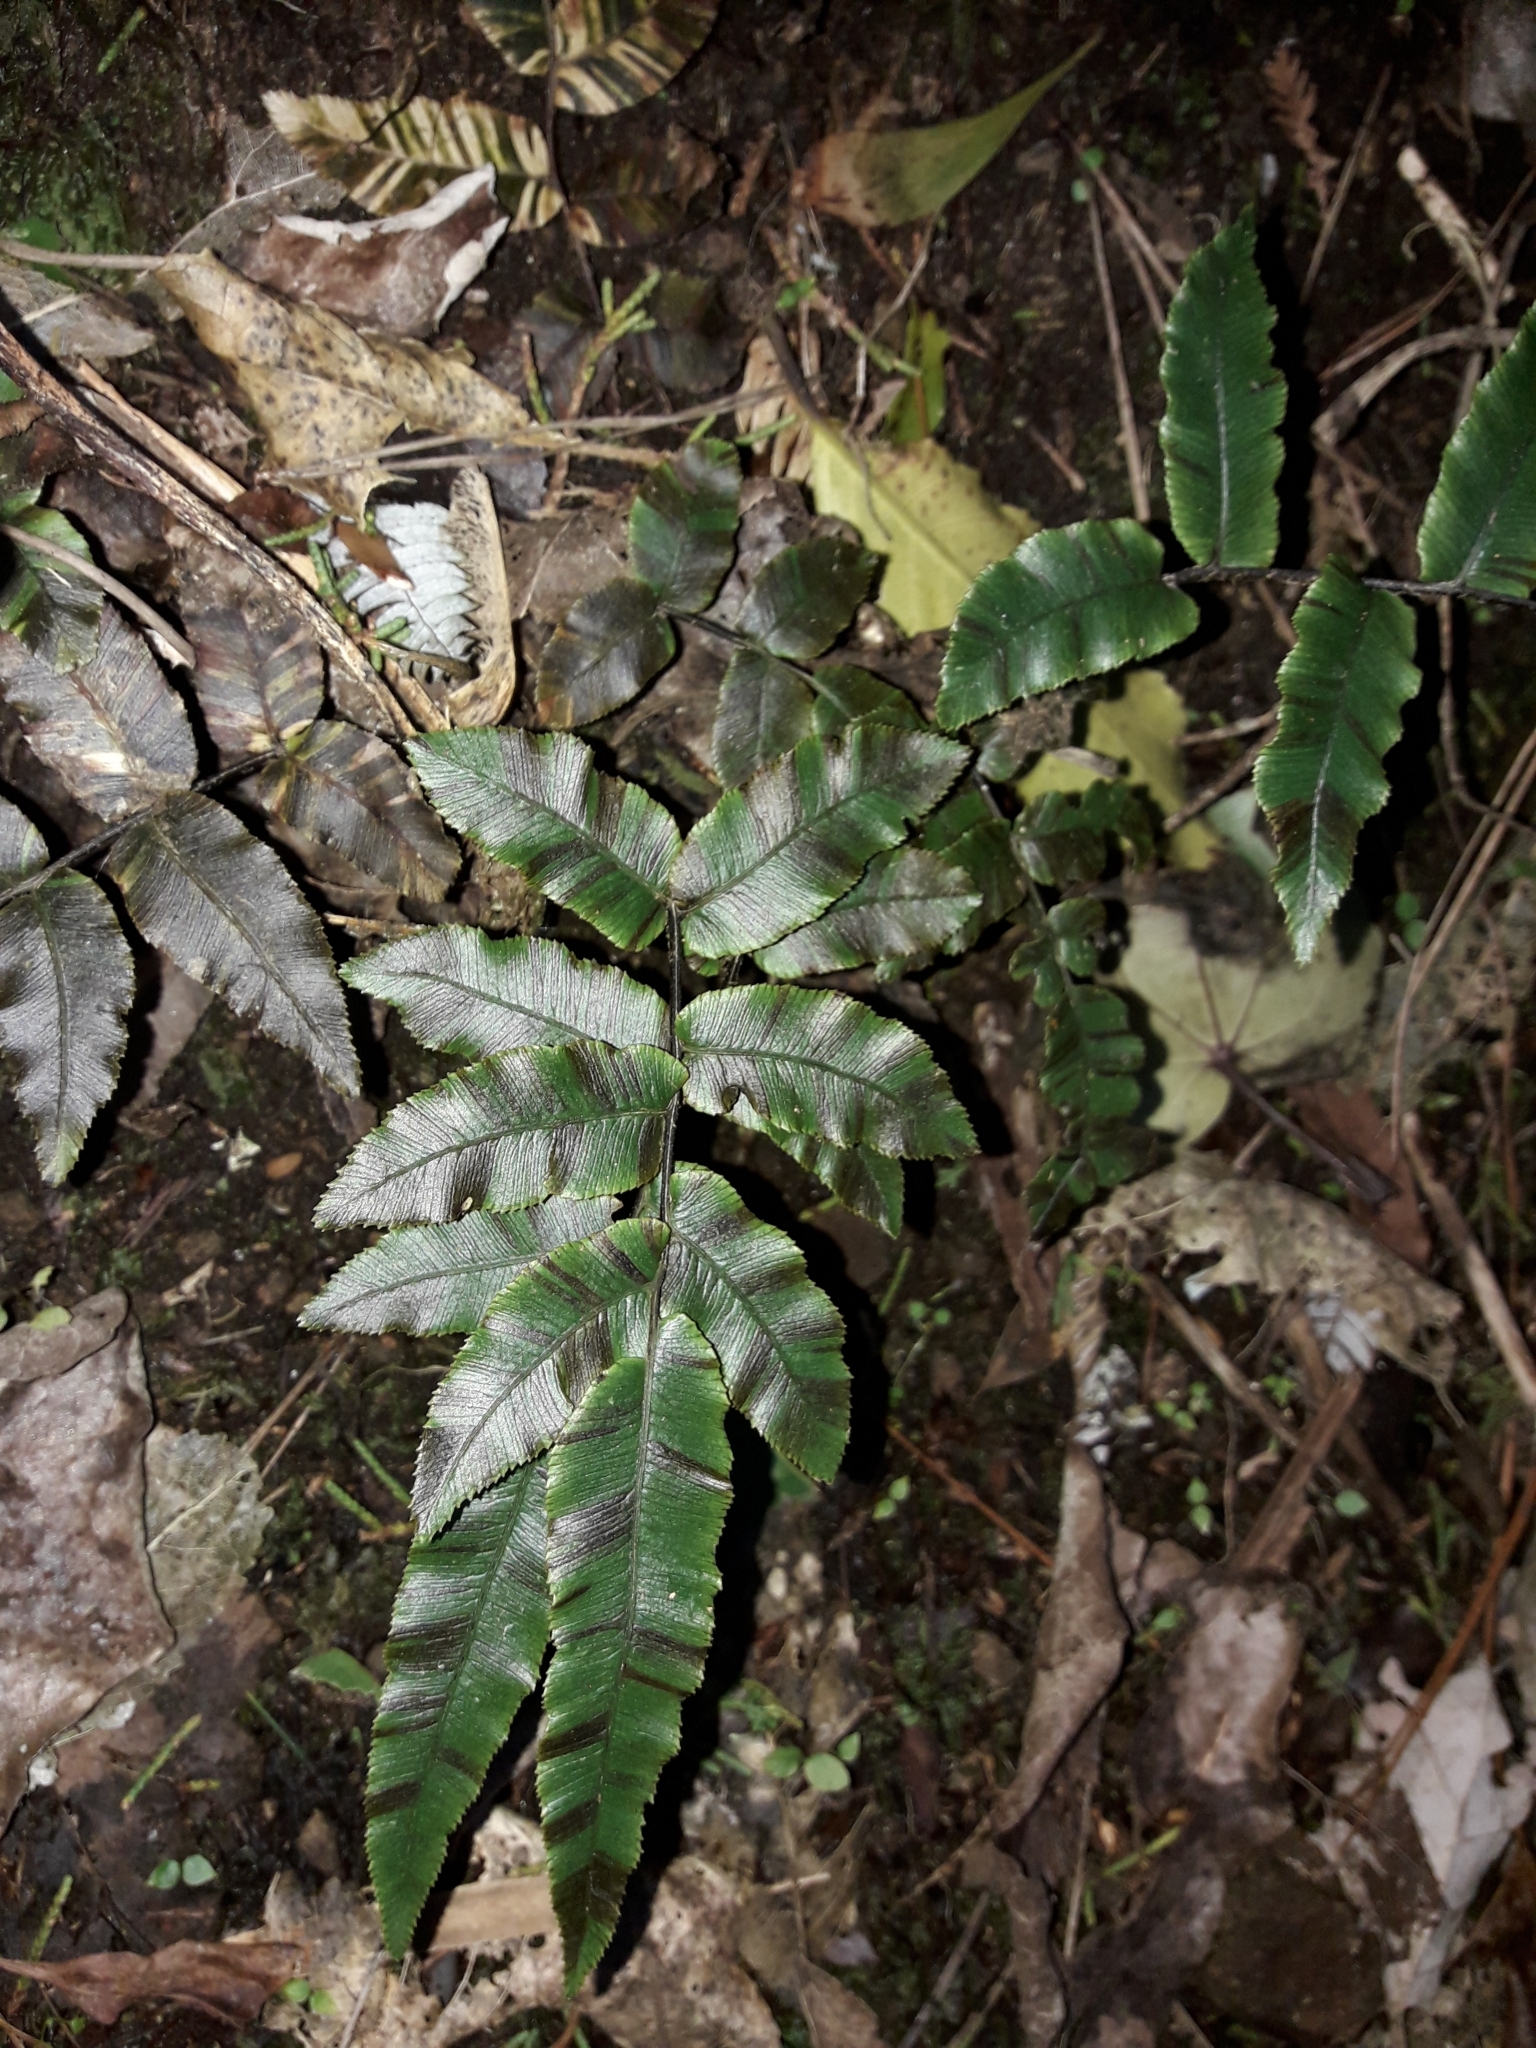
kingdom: Plantae
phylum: Tracheophyta
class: Polypodiopsida
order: Polypodiales
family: Blechnaceae
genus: Parablechnum
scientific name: Parablechnum procerum
